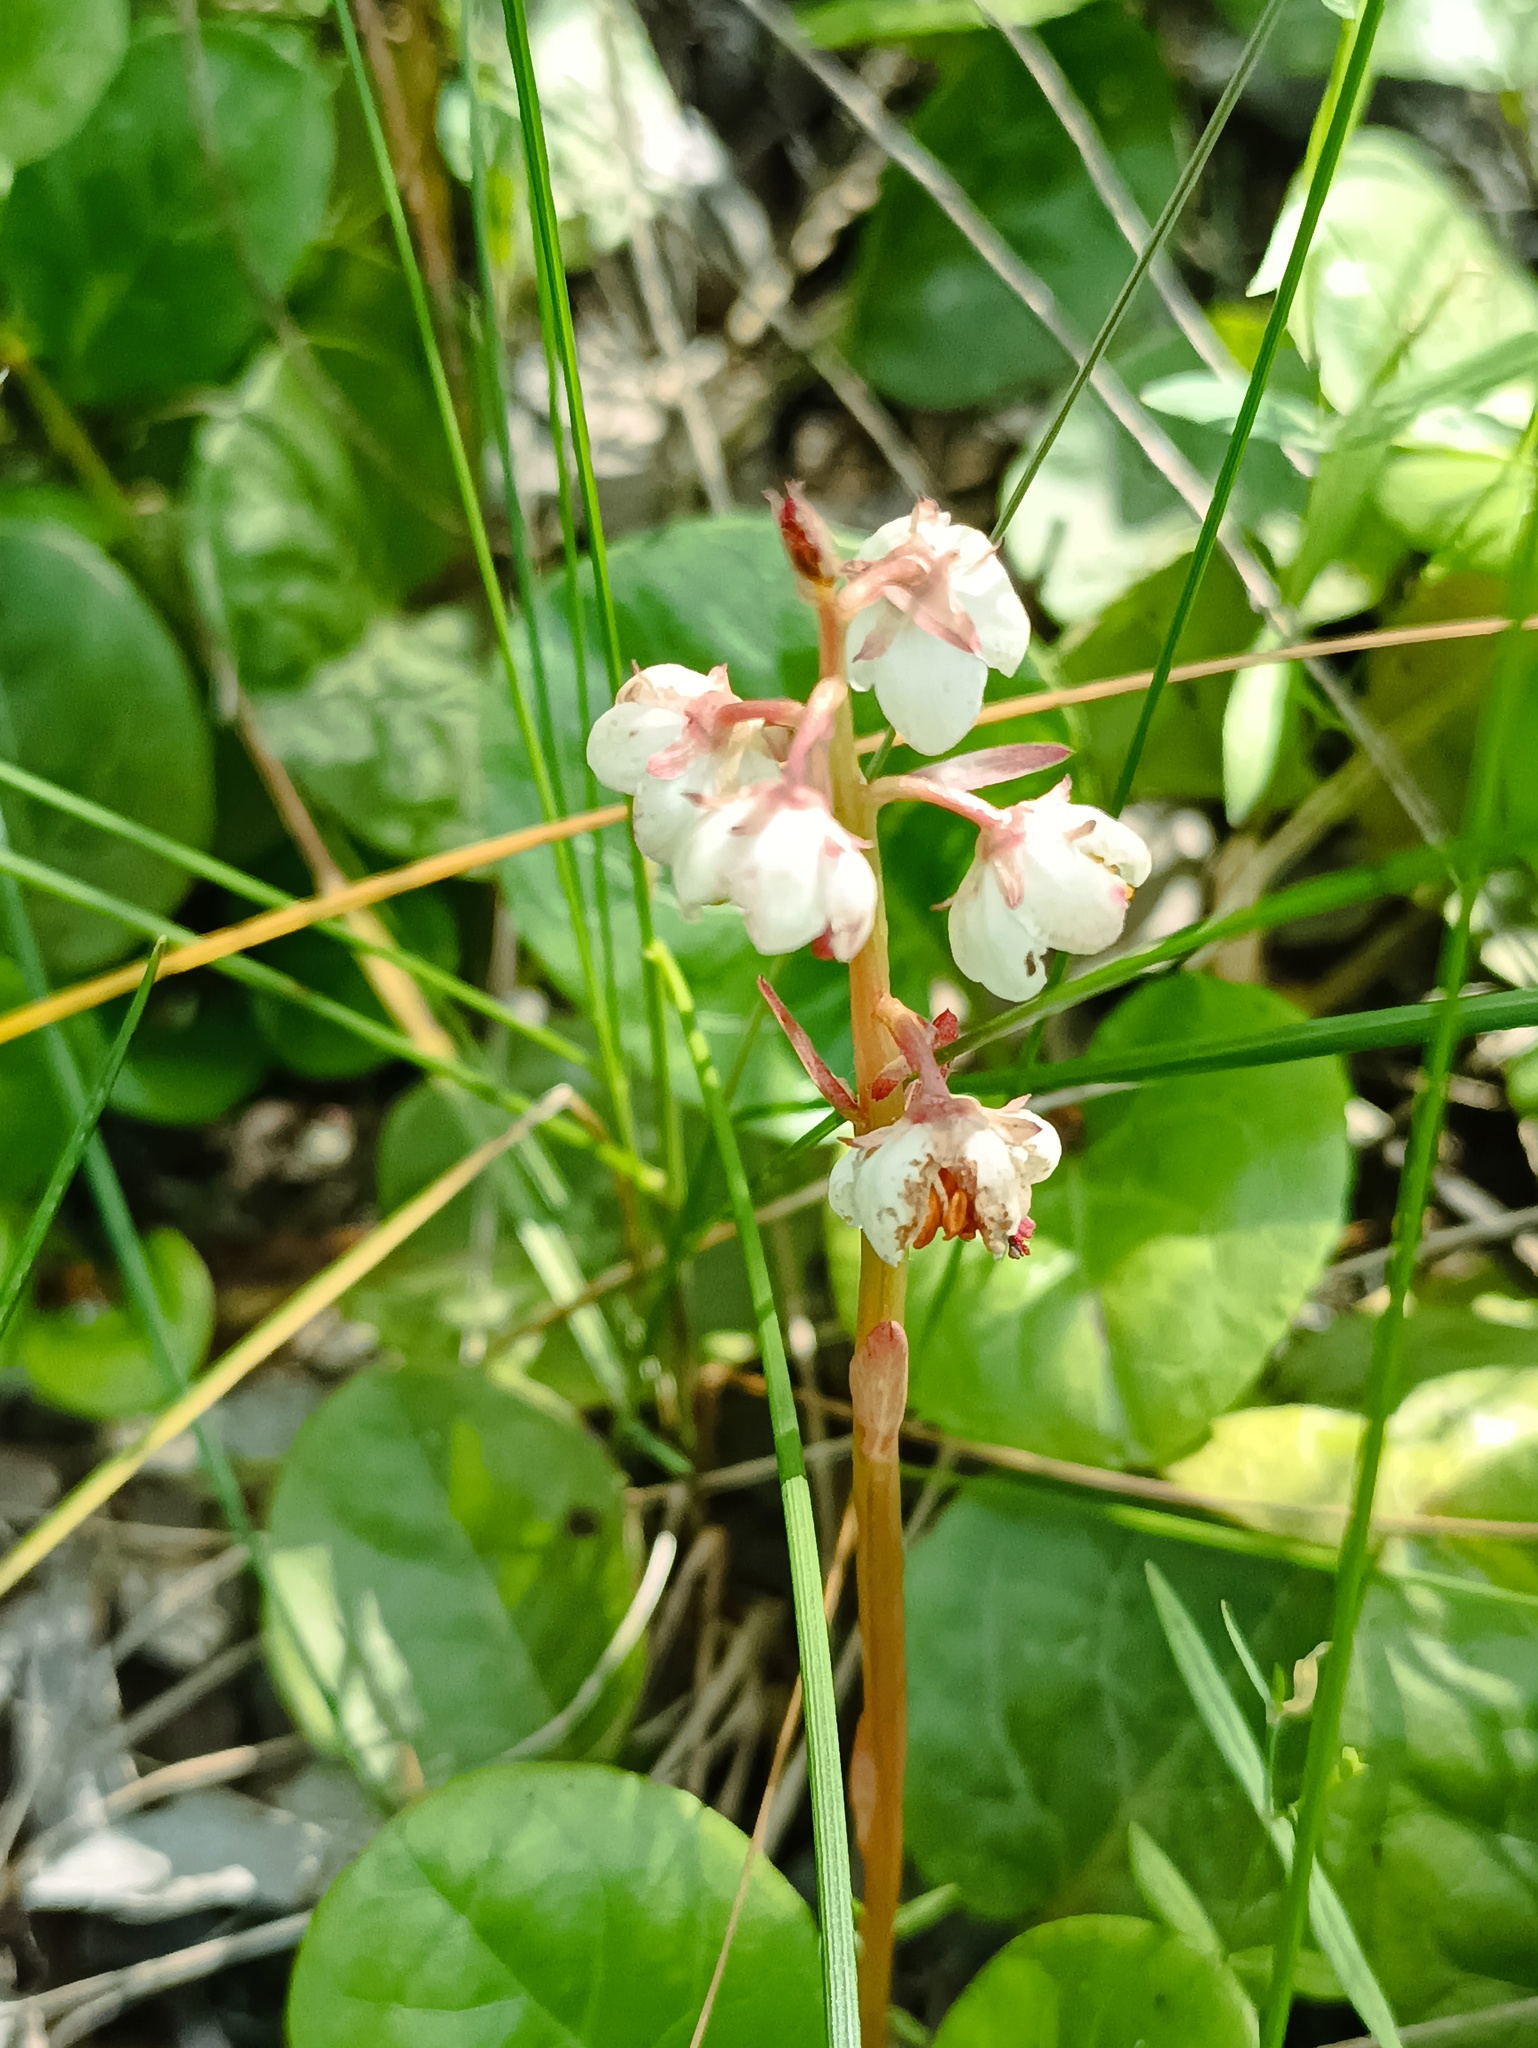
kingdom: Plantae
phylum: Tracheophyta
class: Magnoliopsida
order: Ericales
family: Ericaceae
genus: Pyrola
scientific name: Pyrola rotundifolia
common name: Round-leaved wintergreen
